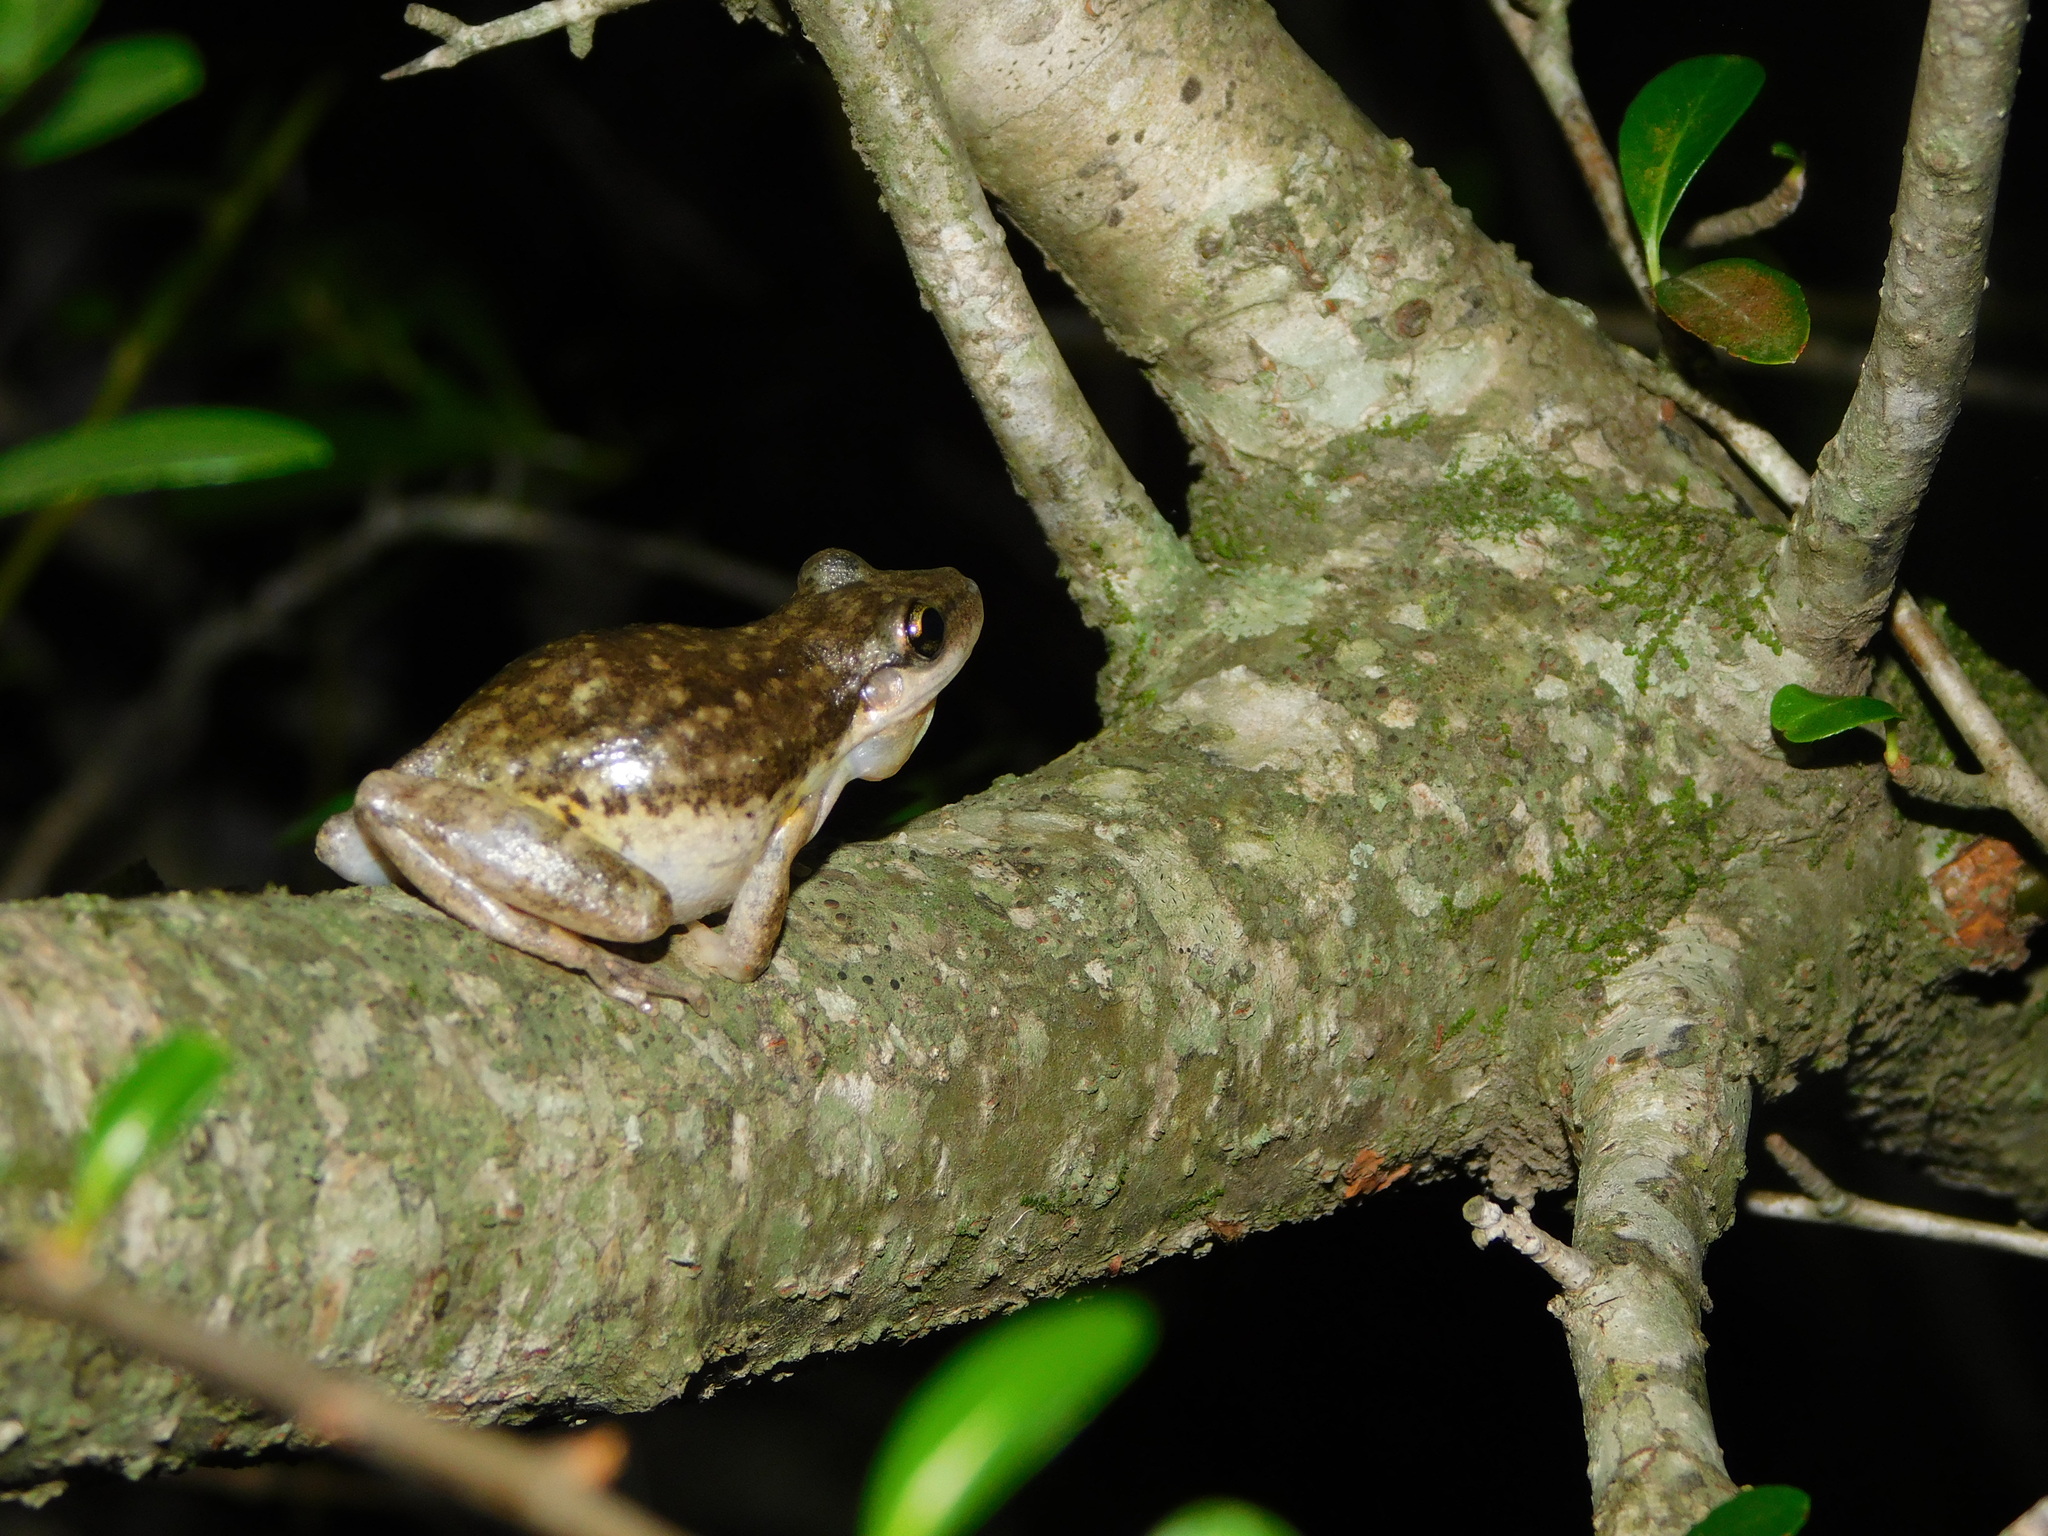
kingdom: Animalia
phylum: Chordata
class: Amphibia
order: Anura
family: Hylidae
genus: Scinax
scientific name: Scinax nasicus
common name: Lesser snouted treefrog
